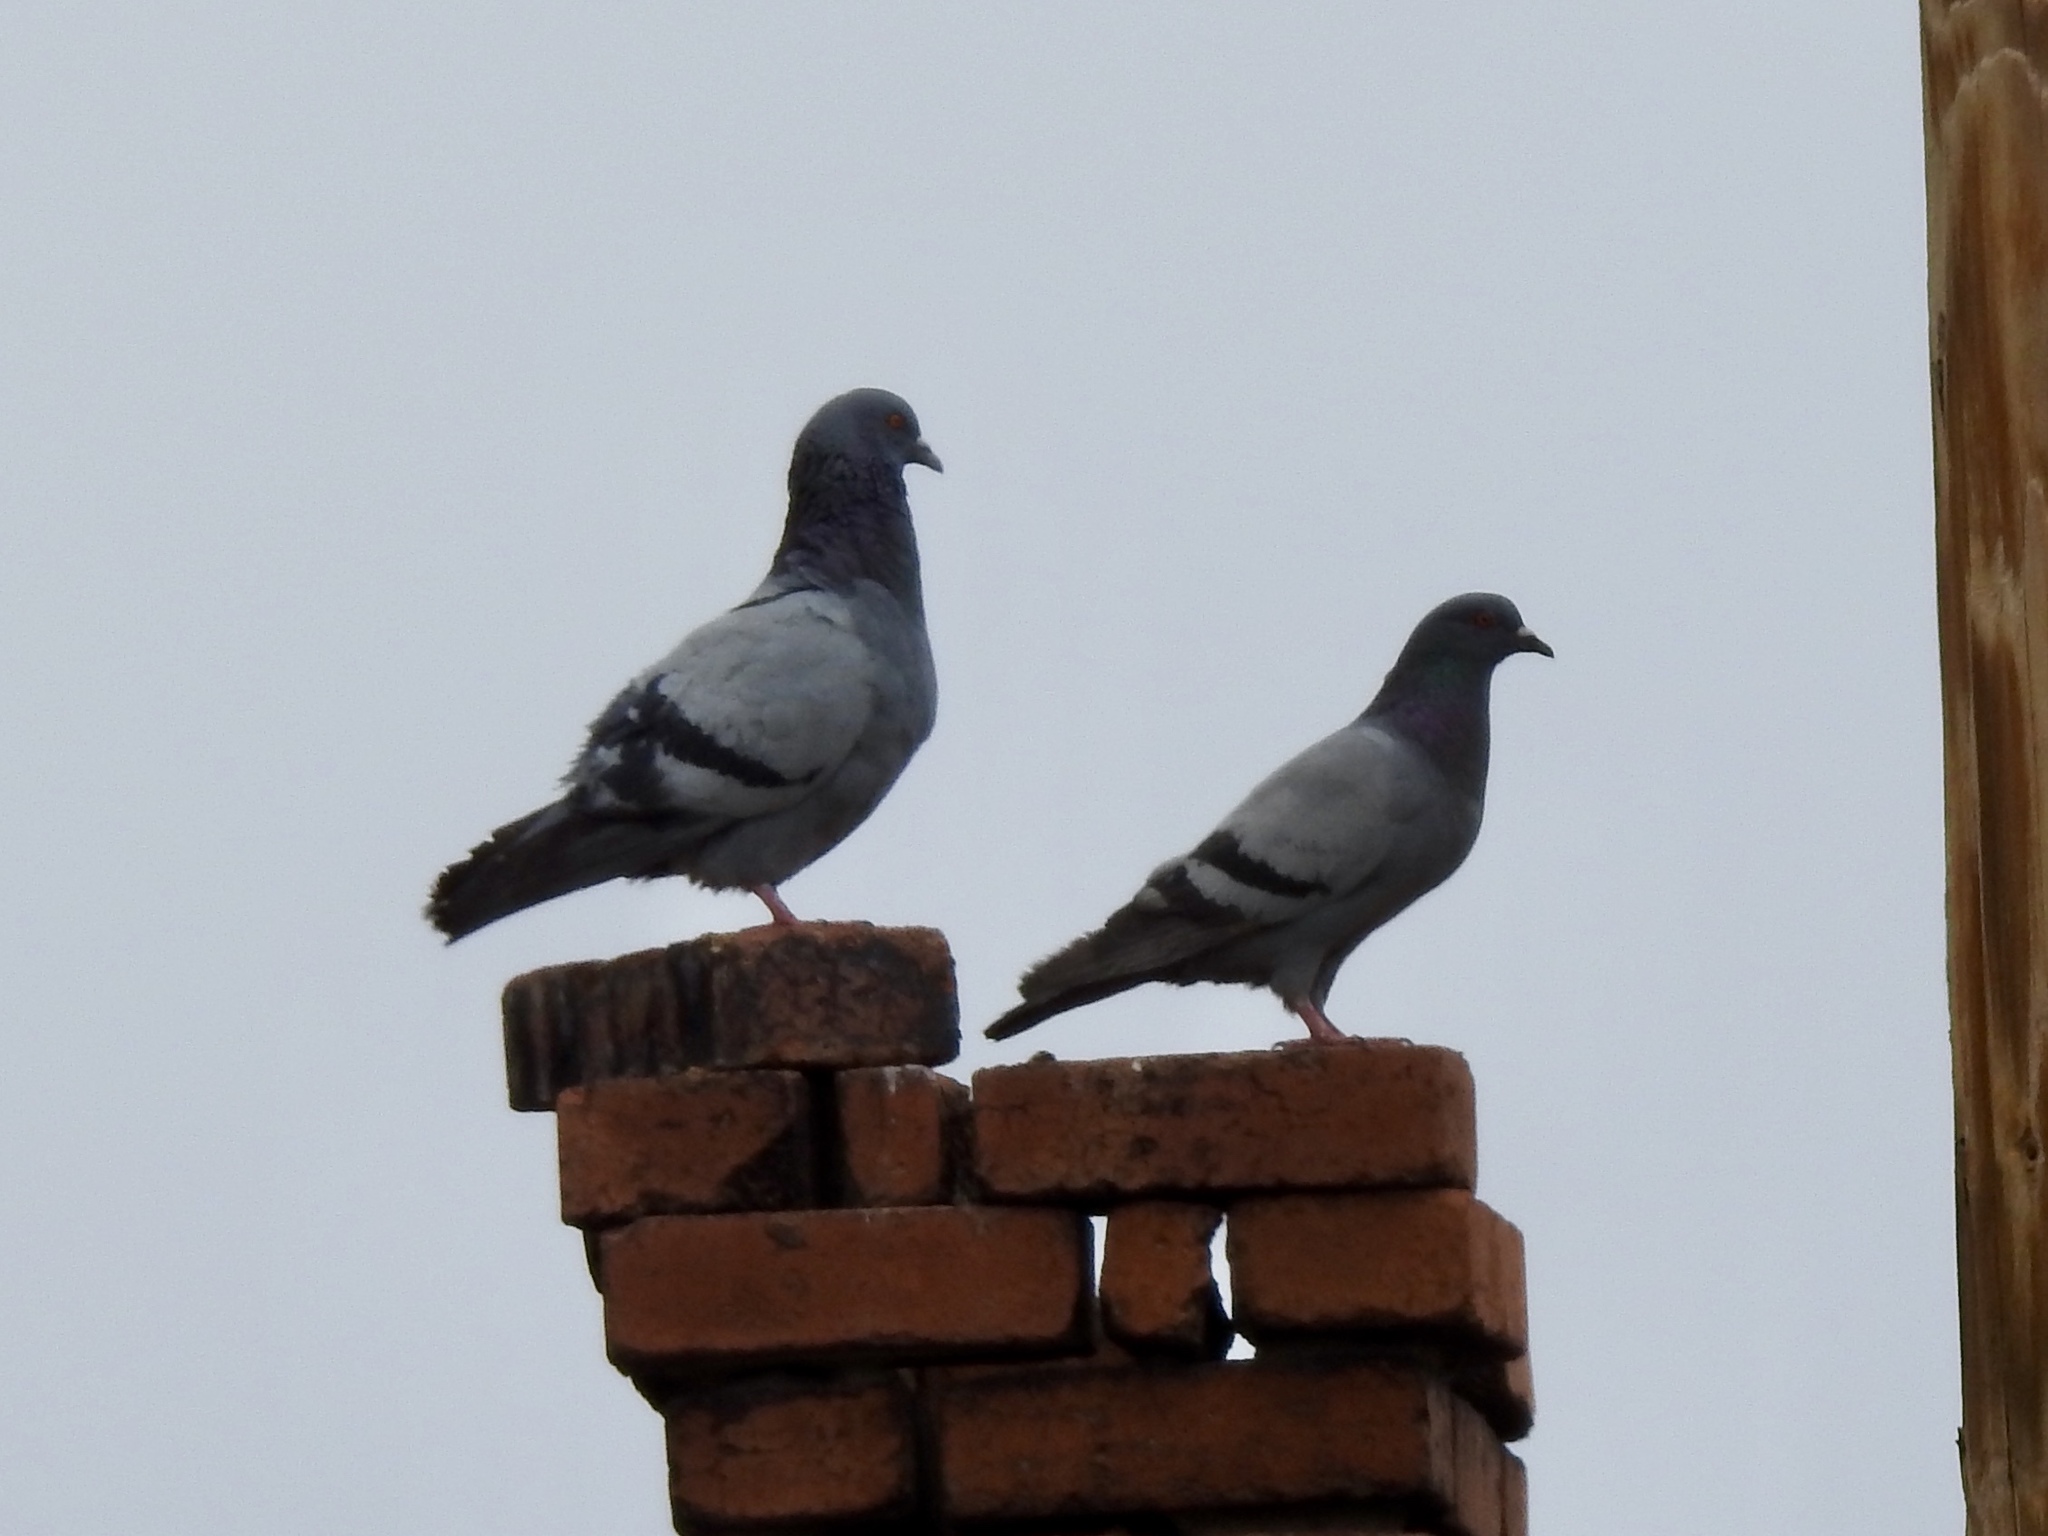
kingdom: Animalia
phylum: Chordata
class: Aves
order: Columbiformes
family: Columbidae
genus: Columba
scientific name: Columba livia
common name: Rock pigeon
